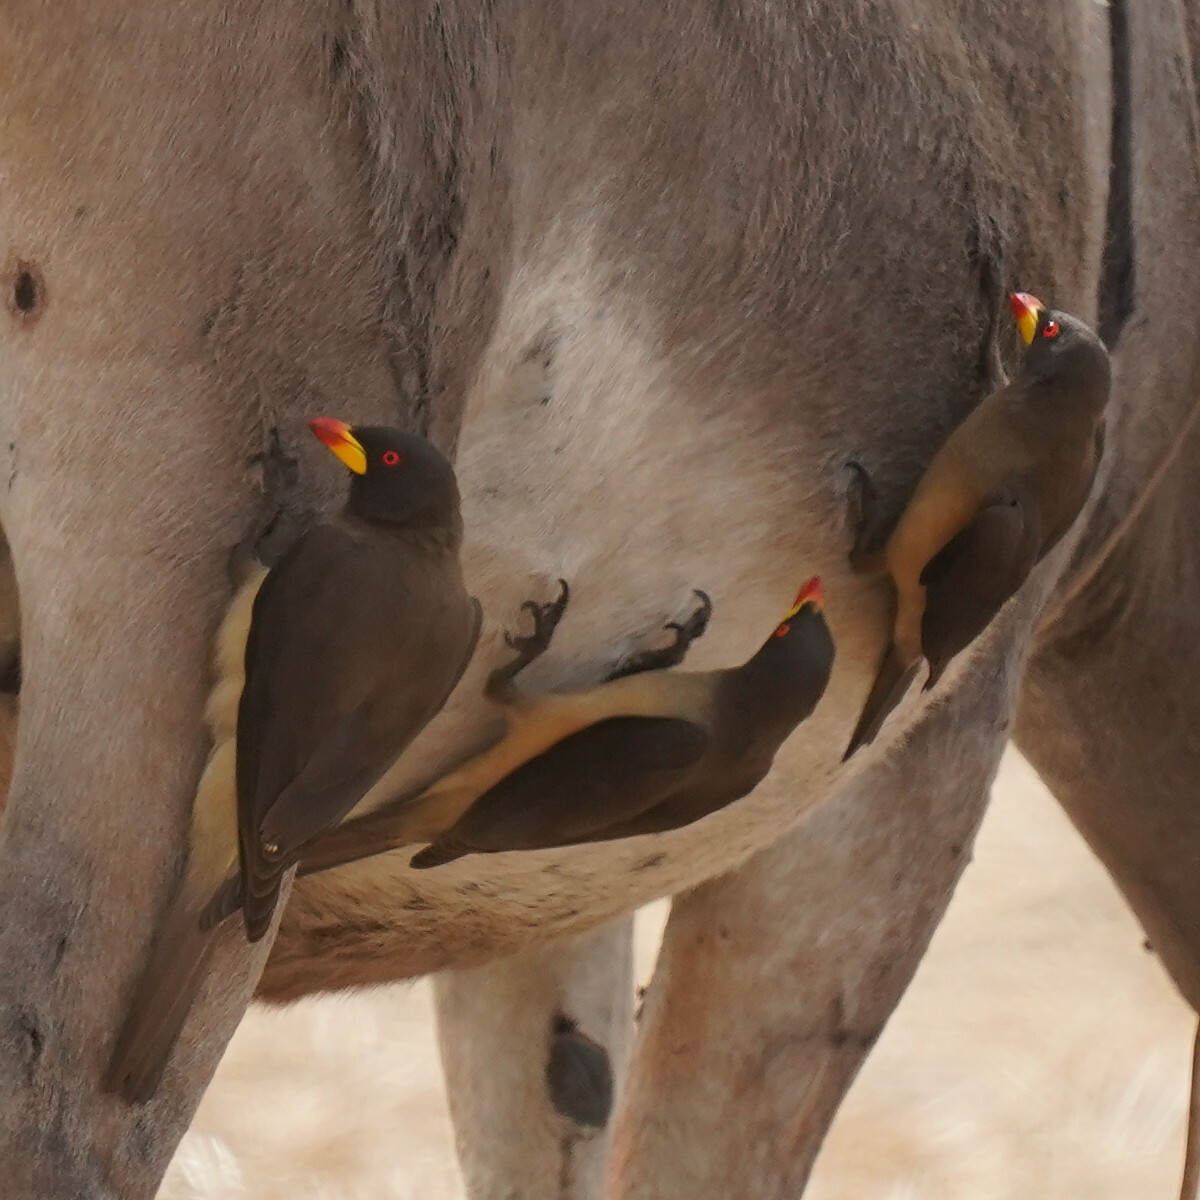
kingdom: Animalia
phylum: Chordata
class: Aves
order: Passeriformes
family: Buphagidae
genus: Buphagus
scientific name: Buphagus africanus
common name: Yellow-billed oxpecker
